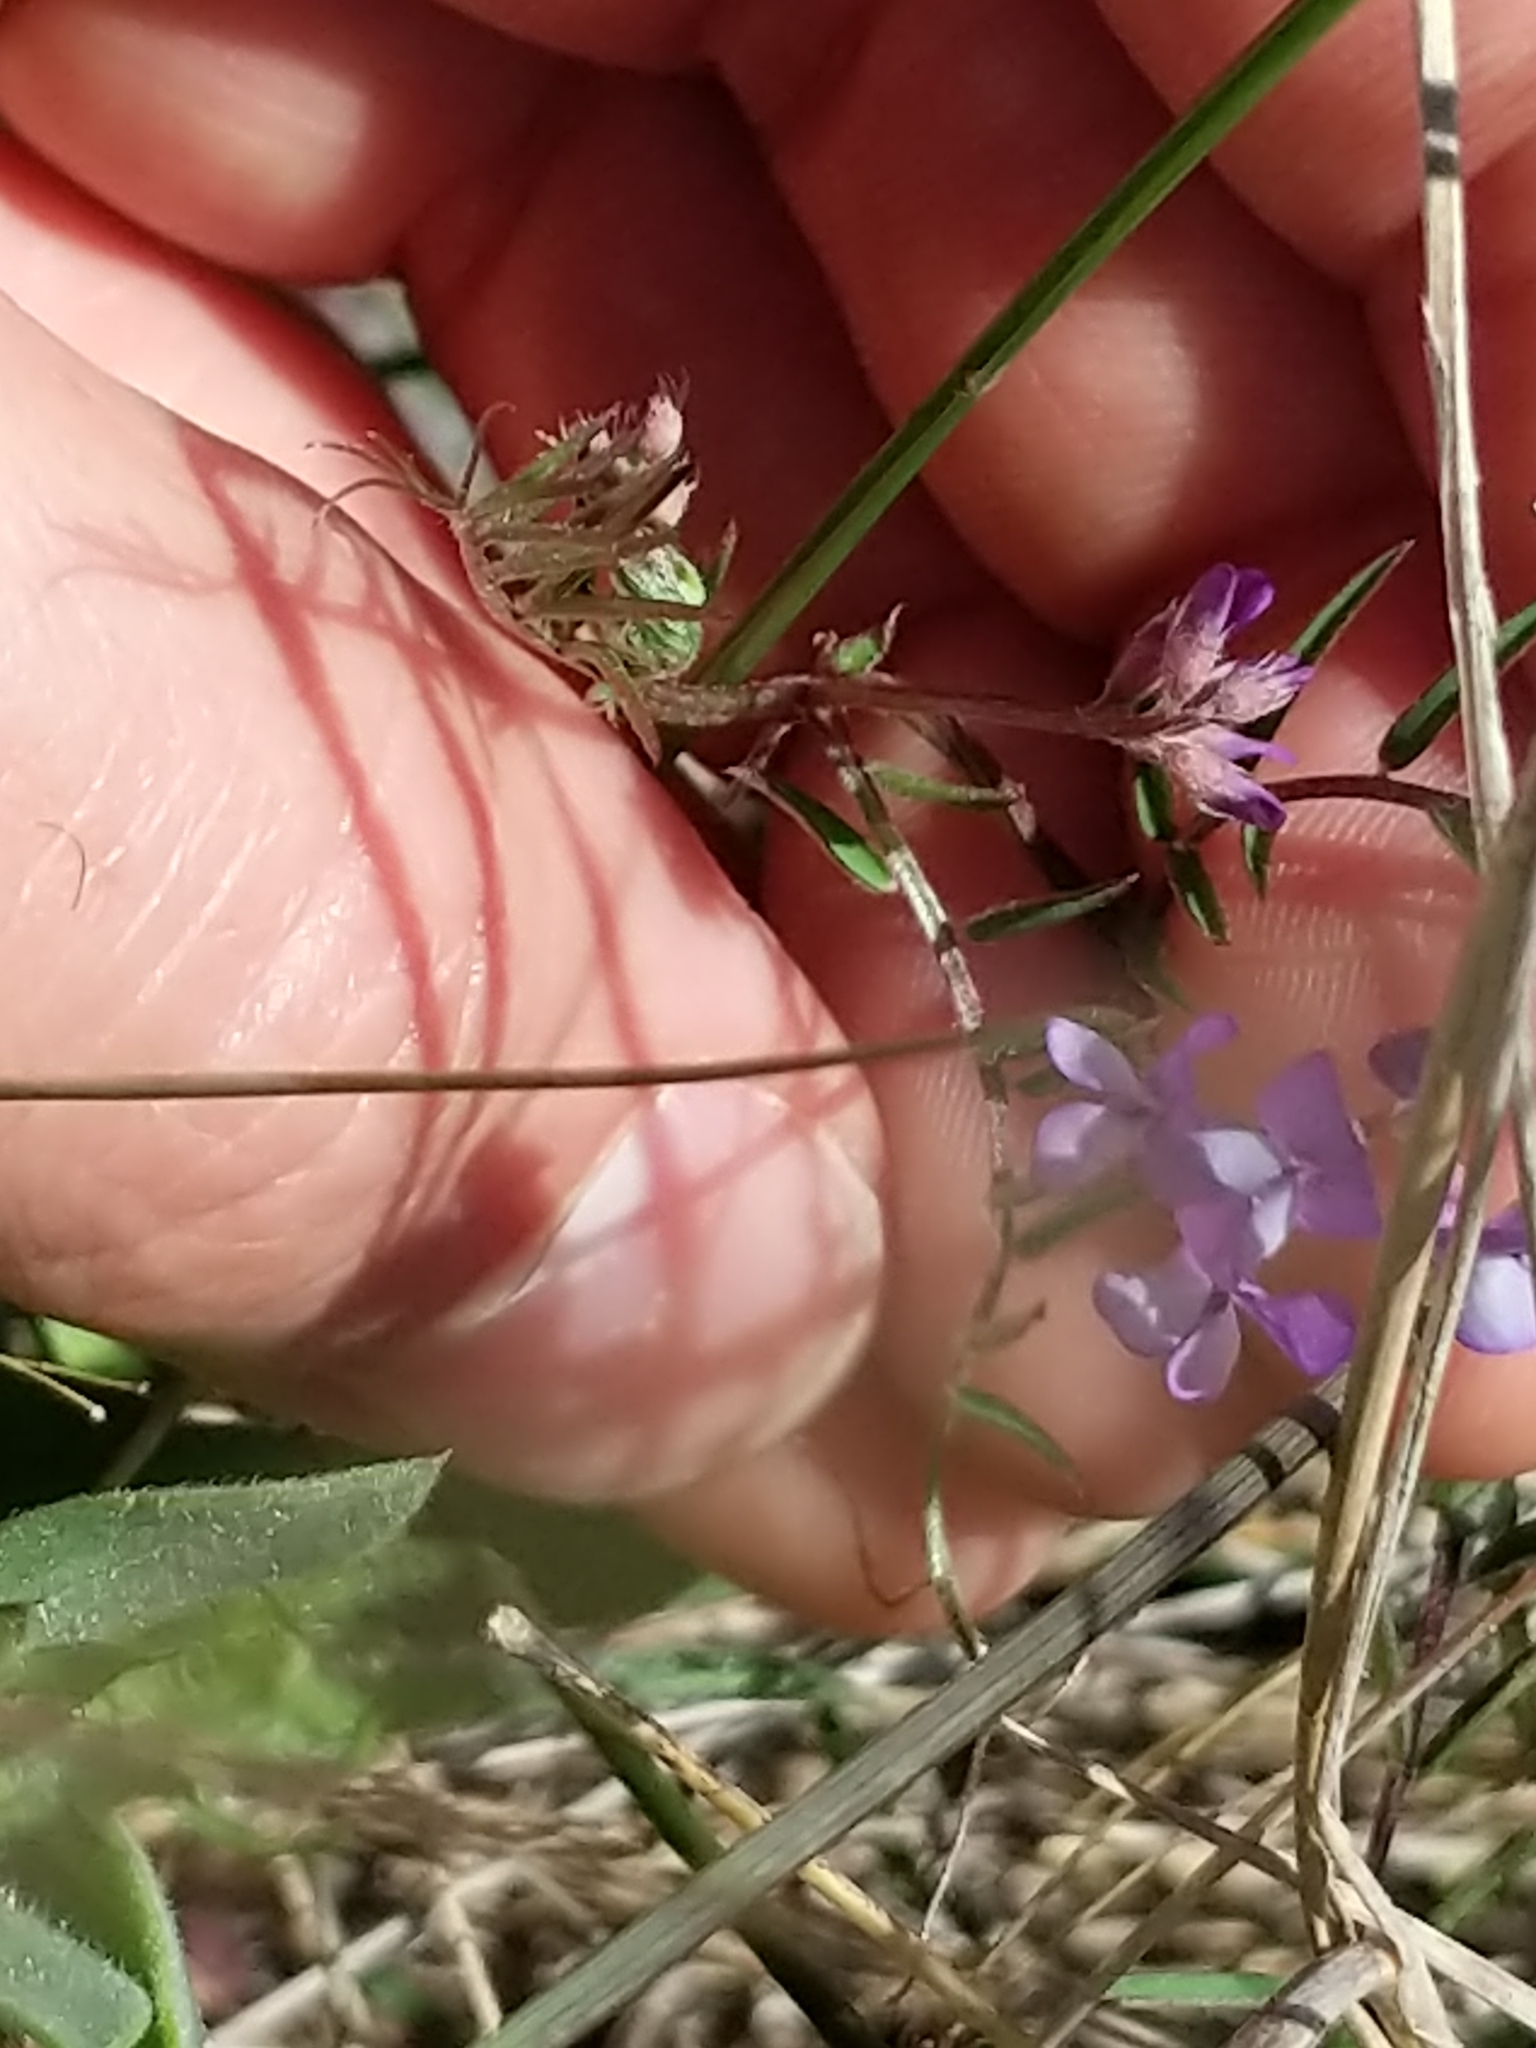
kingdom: Plantae
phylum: Tracheophyta
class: Magnoliopsida
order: Fabales
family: Fabaceae
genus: Vicia
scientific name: Vicia ludoviciana
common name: Louisiana vetch
